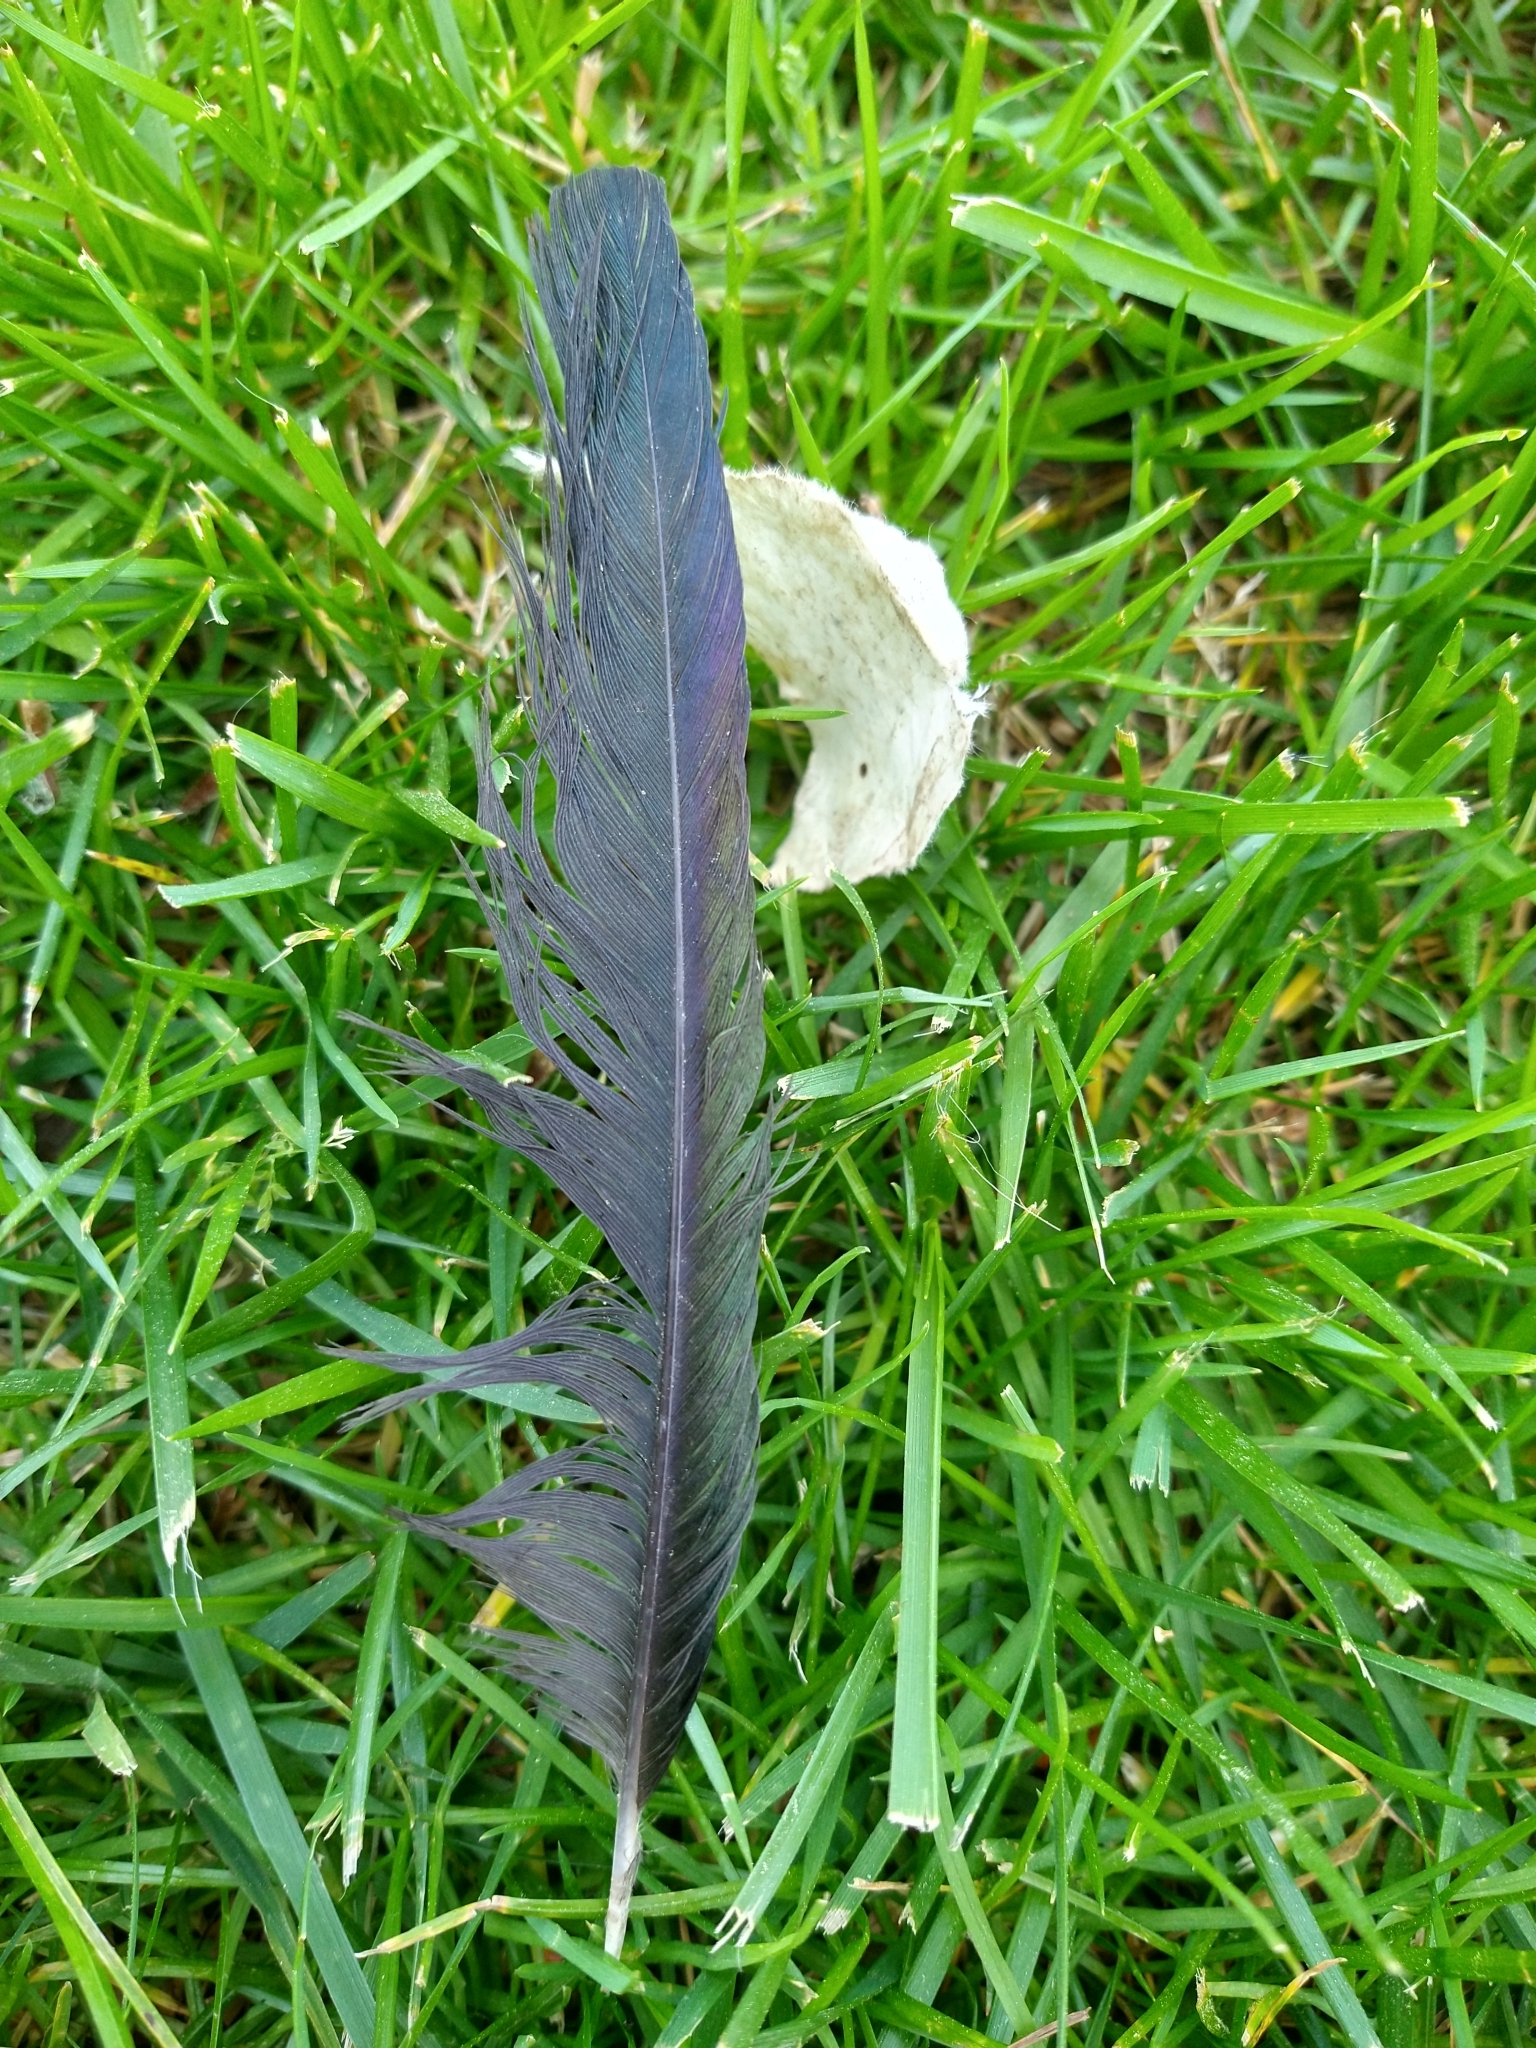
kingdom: Animalia
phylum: Chordata
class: Aves
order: Passeriformes
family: Corvidae
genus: Pica
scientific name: Pica nuttalli
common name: Yellow-billed magpie
